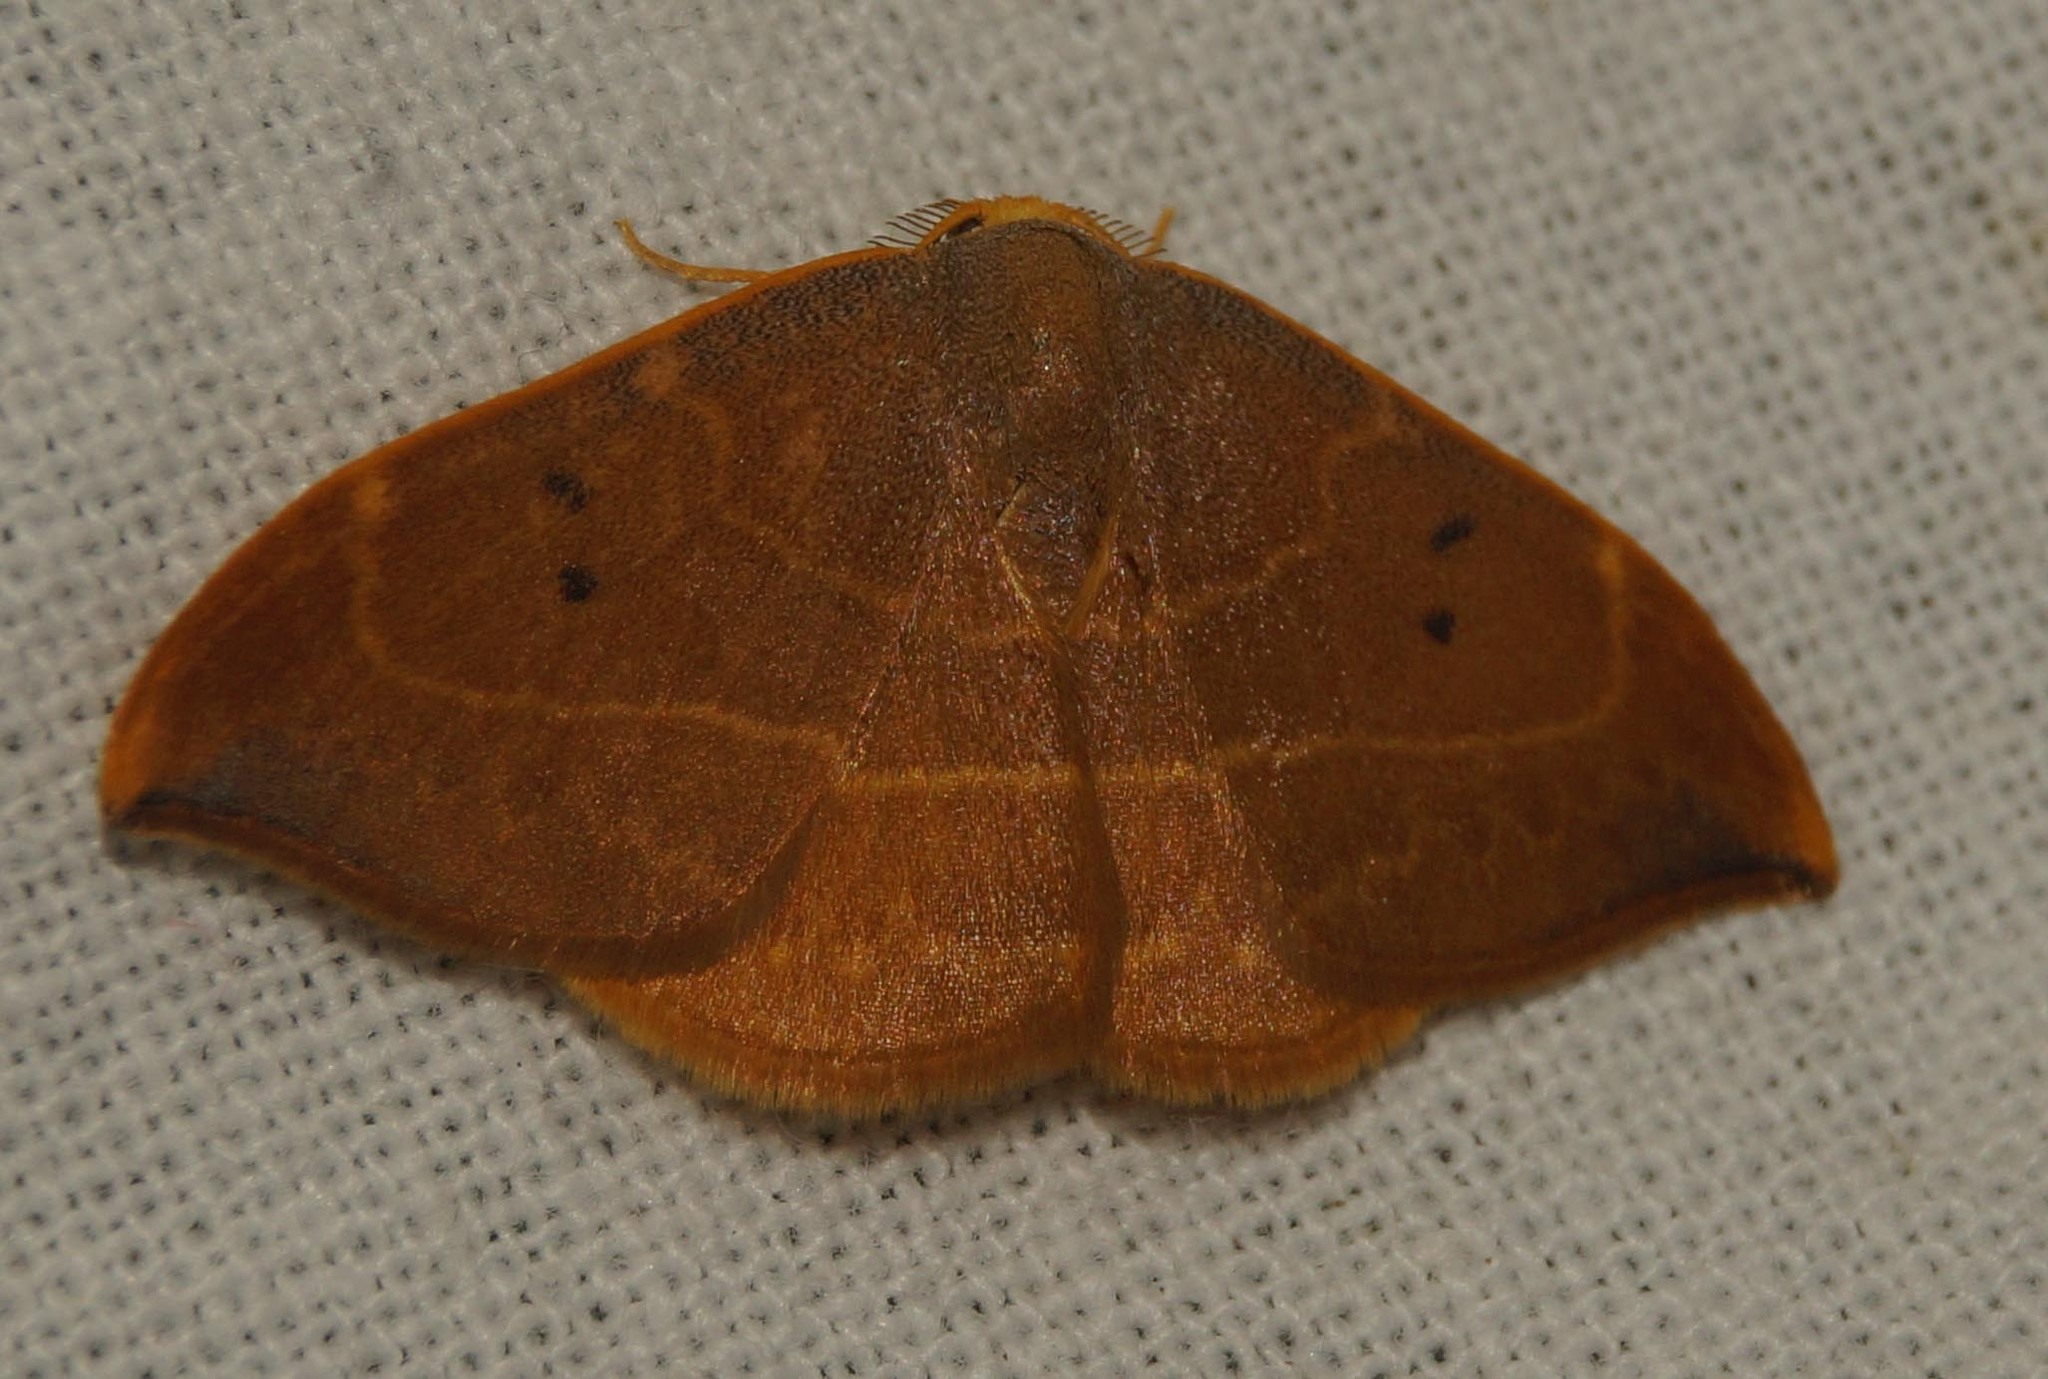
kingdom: Animalia
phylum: Arthropoda
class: Insecta
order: Lepidoptera
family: Drepanidae
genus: Watsonalla
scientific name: Watsonalla binaria
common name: Oak hook-tip
